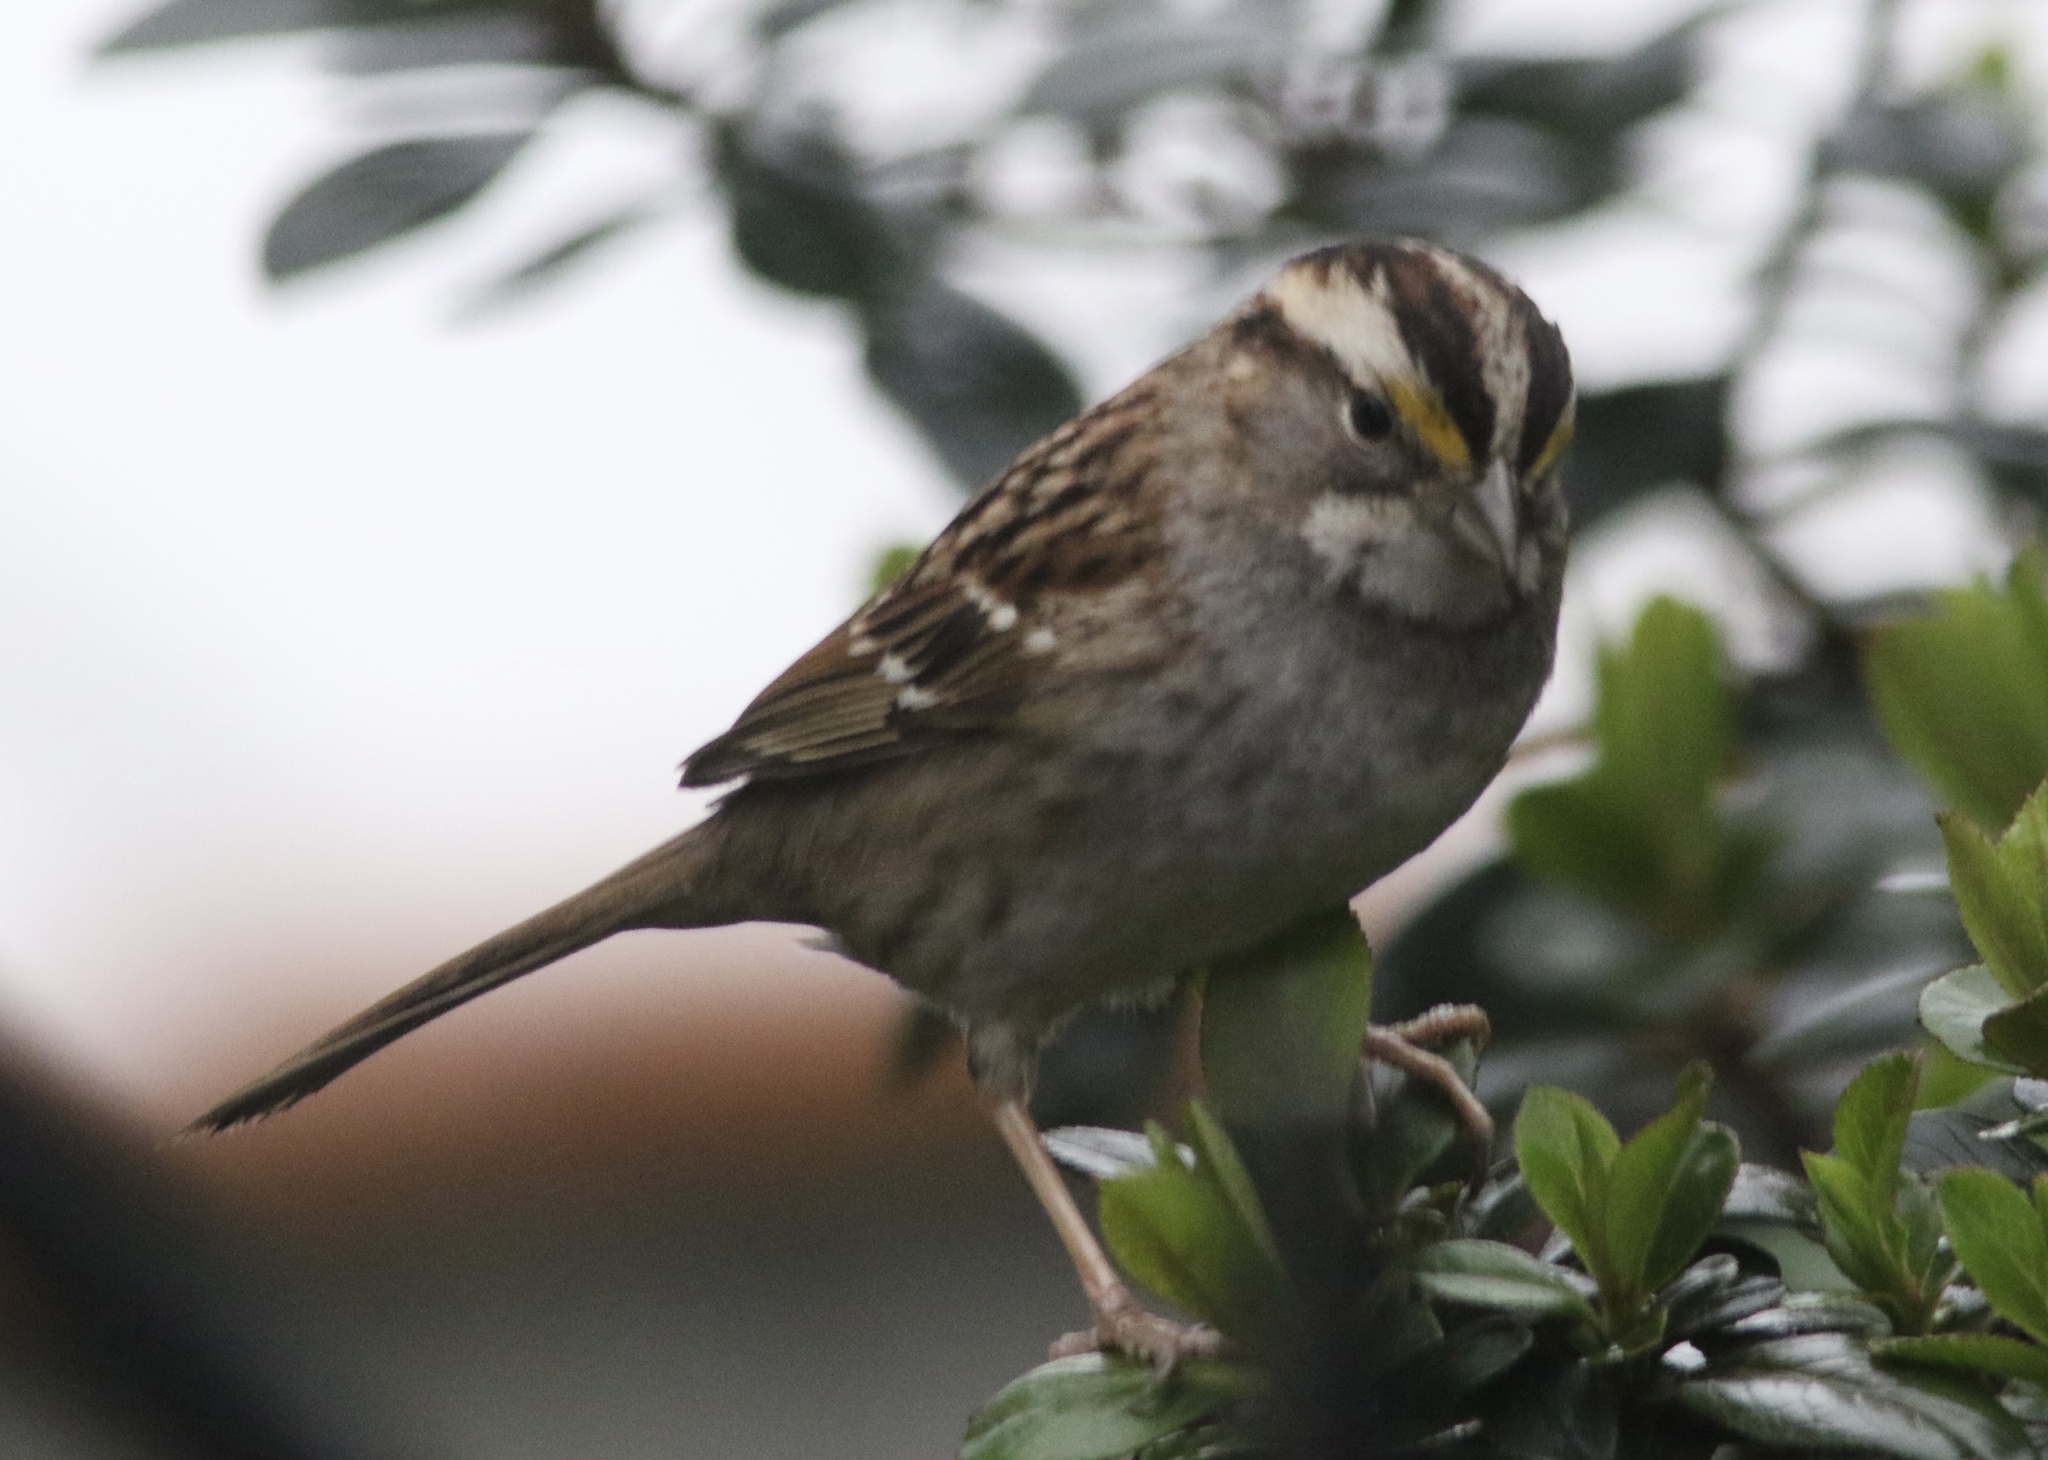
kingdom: Animalia
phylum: Chordata
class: Aves
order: Passeriformes
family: Passerellidae
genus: Zonotrichia
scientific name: Zonotrichia albicollis
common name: White-throated sparrow
